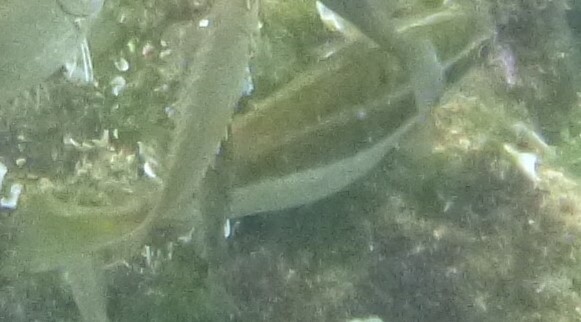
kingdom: Animalia
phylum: Chordata
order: Perciformes
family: Siganidae
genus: Siganus
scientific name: Siganus luridus
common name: Dusky spinefoot
